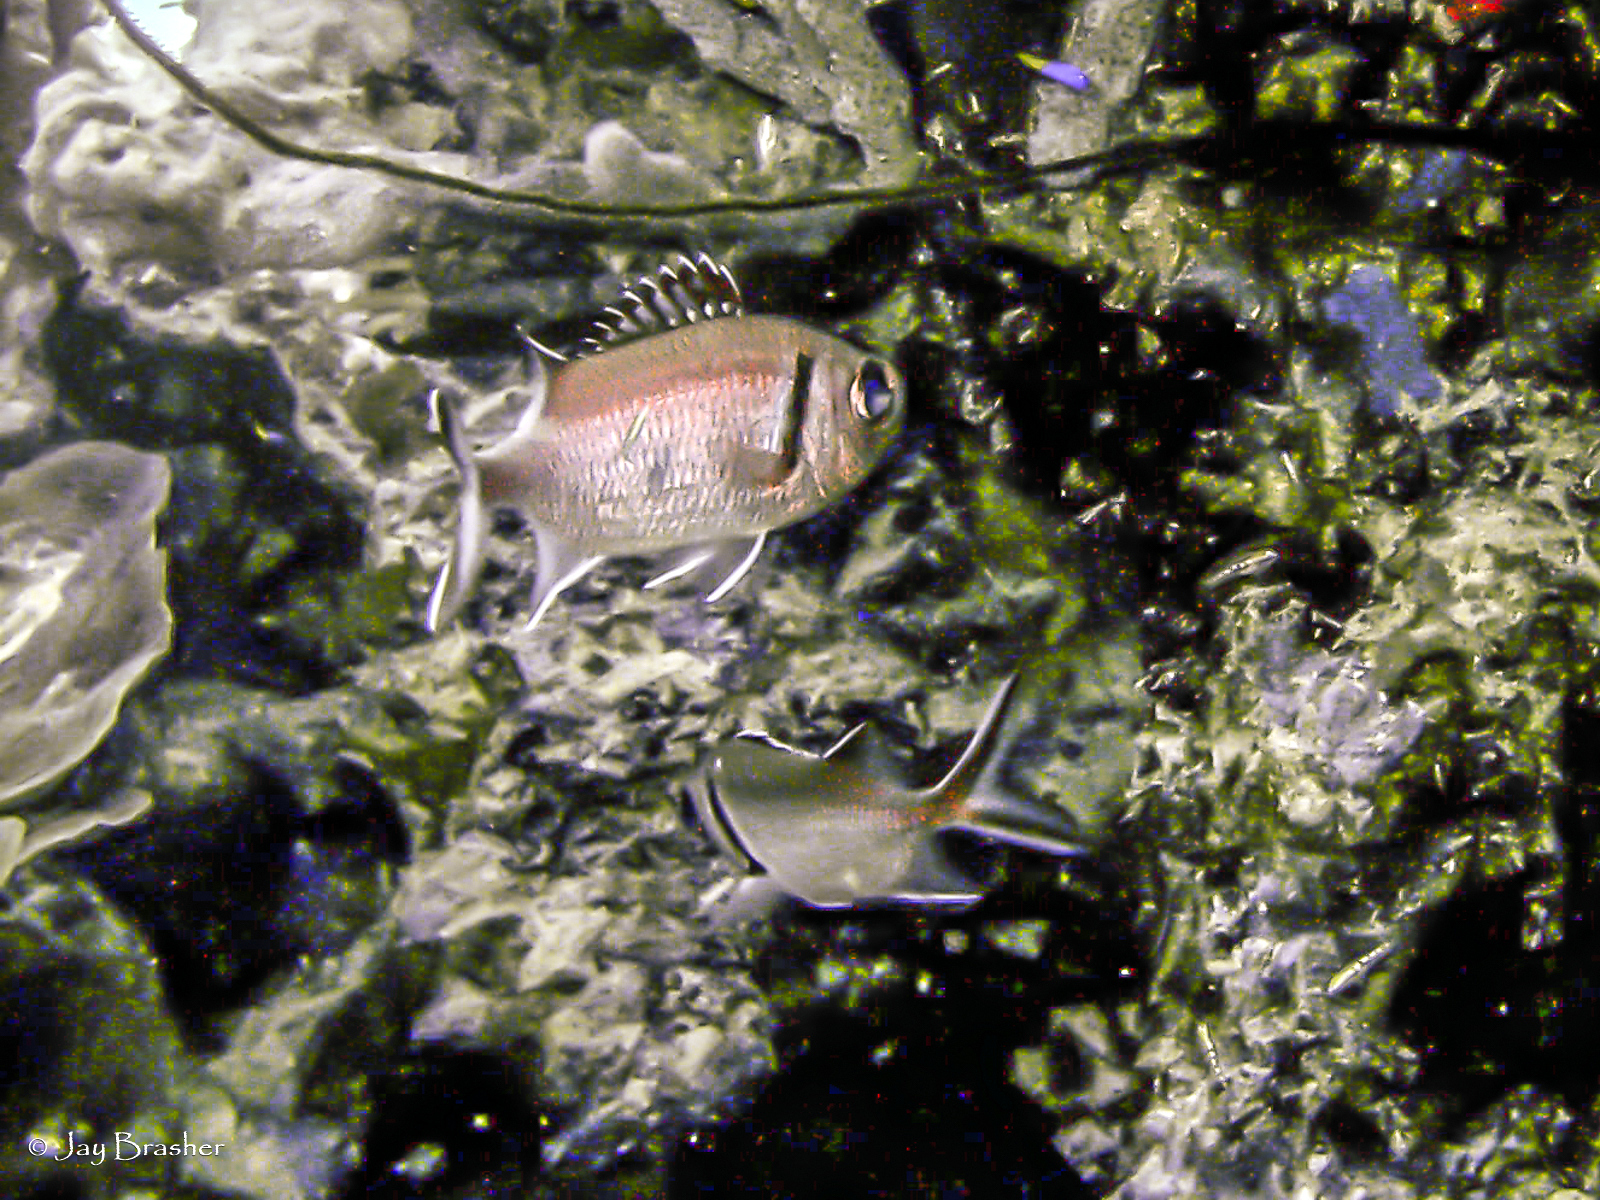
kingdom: Animalia
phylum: Chordata
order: Beryciformes
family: Holocentridae
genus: Myripristis
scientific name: Myripristis jacobus
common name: Blackbar soldierfish
